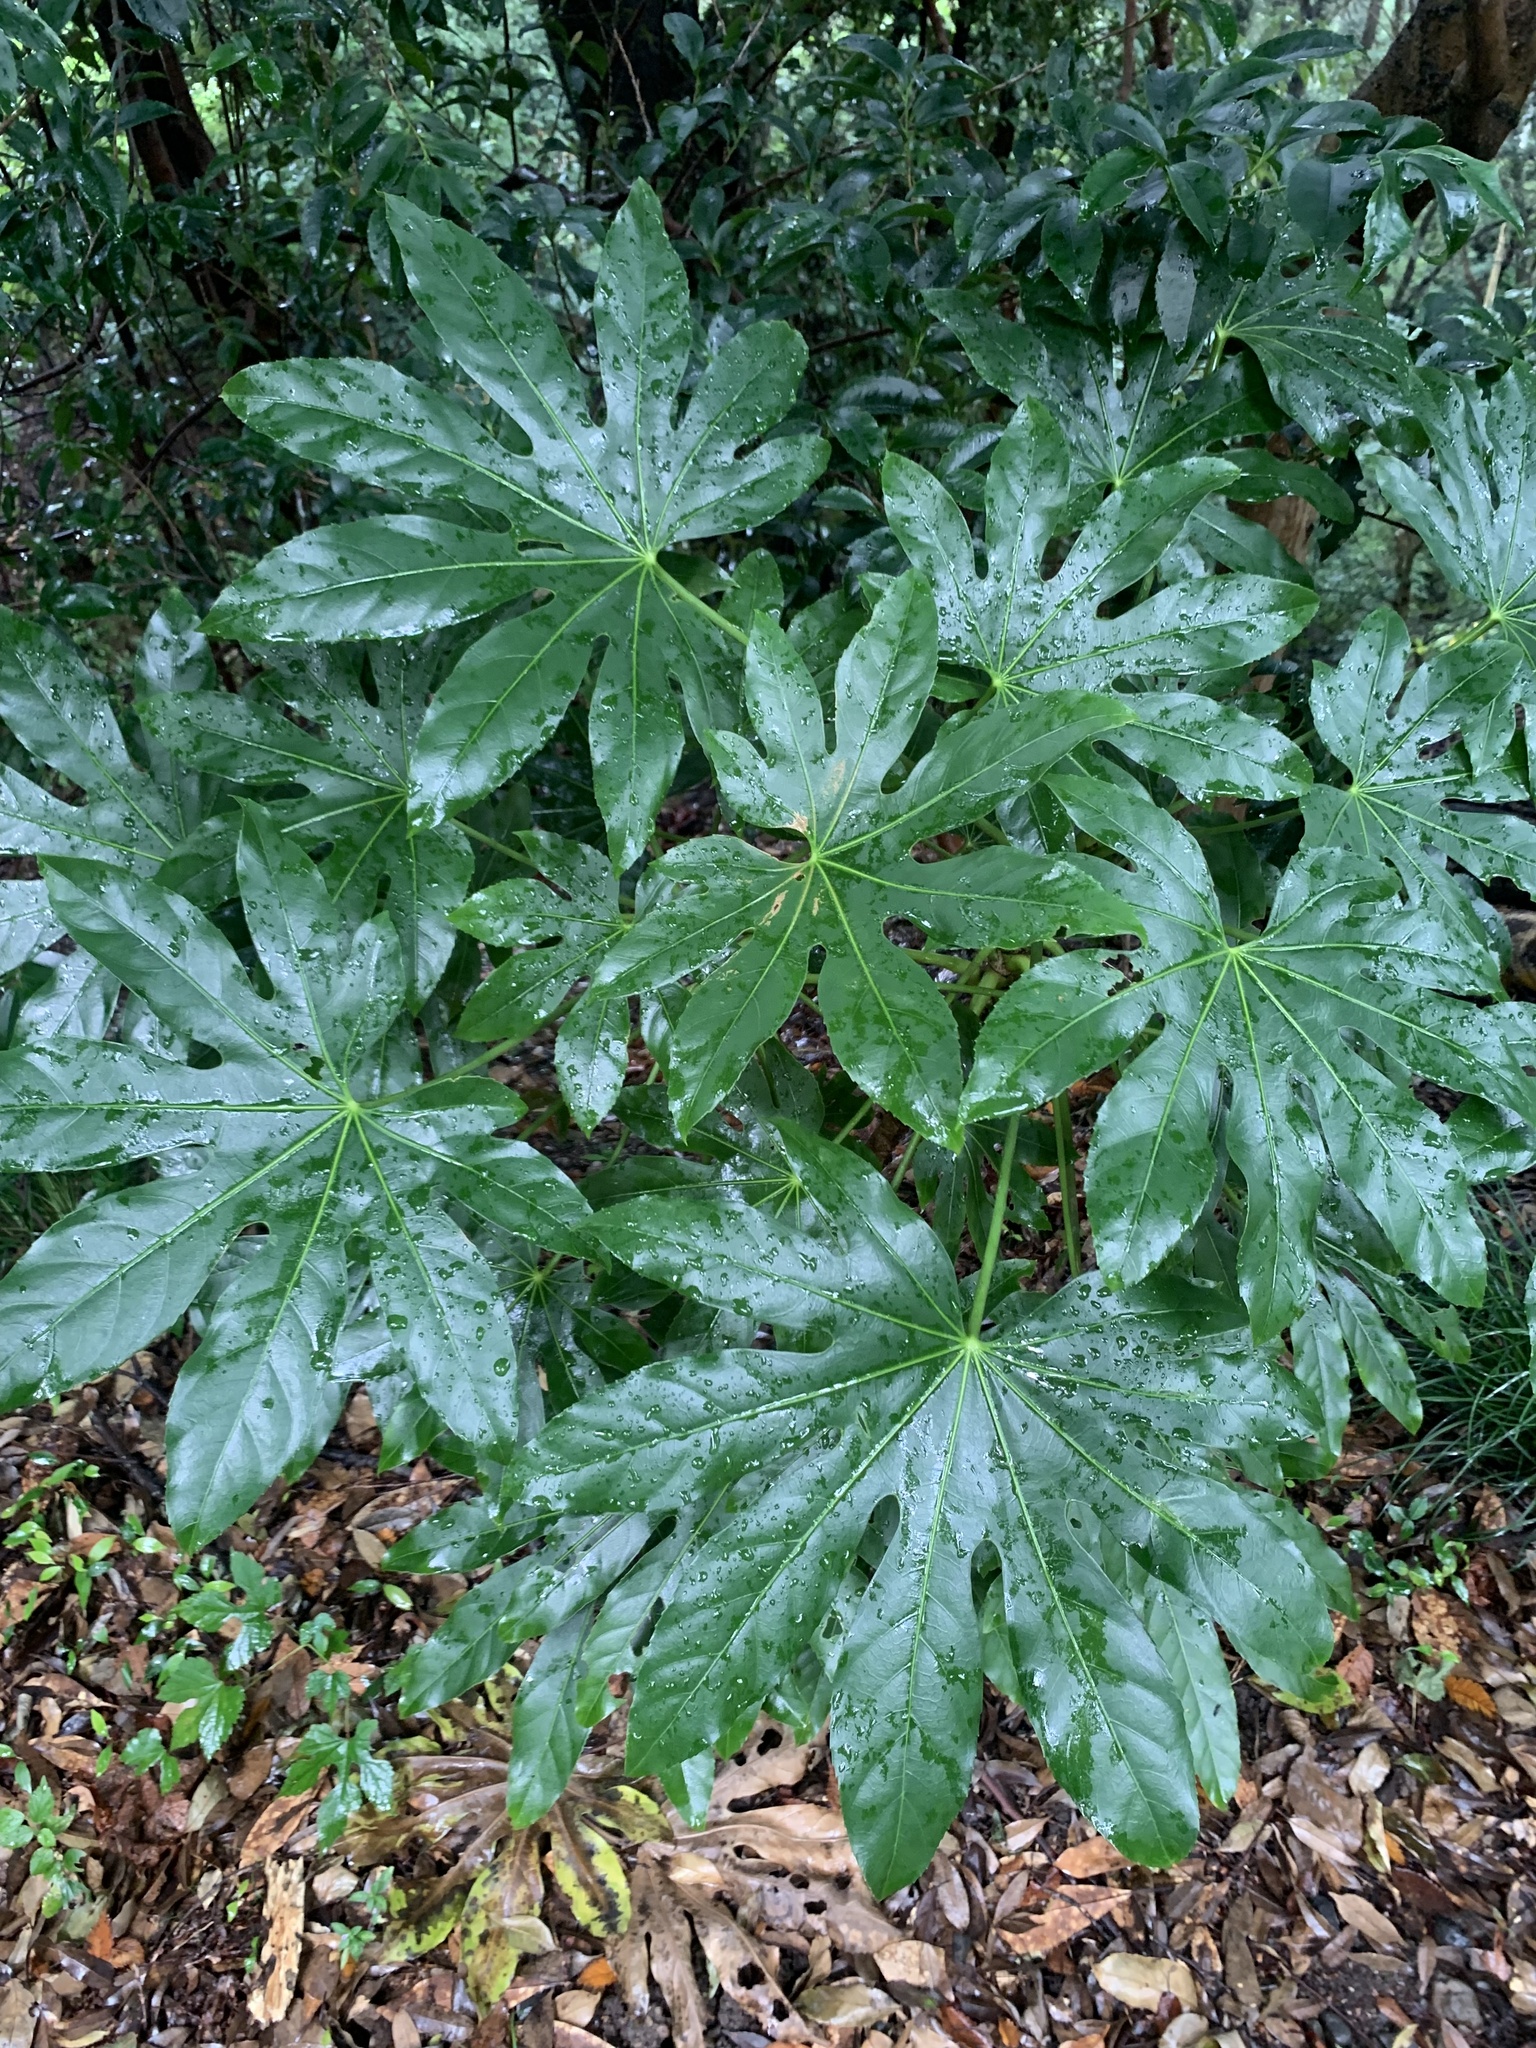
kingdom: Plantae
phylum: Tracheophyta
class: Magnoliopsida
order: Apiales
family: Araliaceae
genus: Fatsia
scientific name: Fatsia japonica
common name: Fatsia
